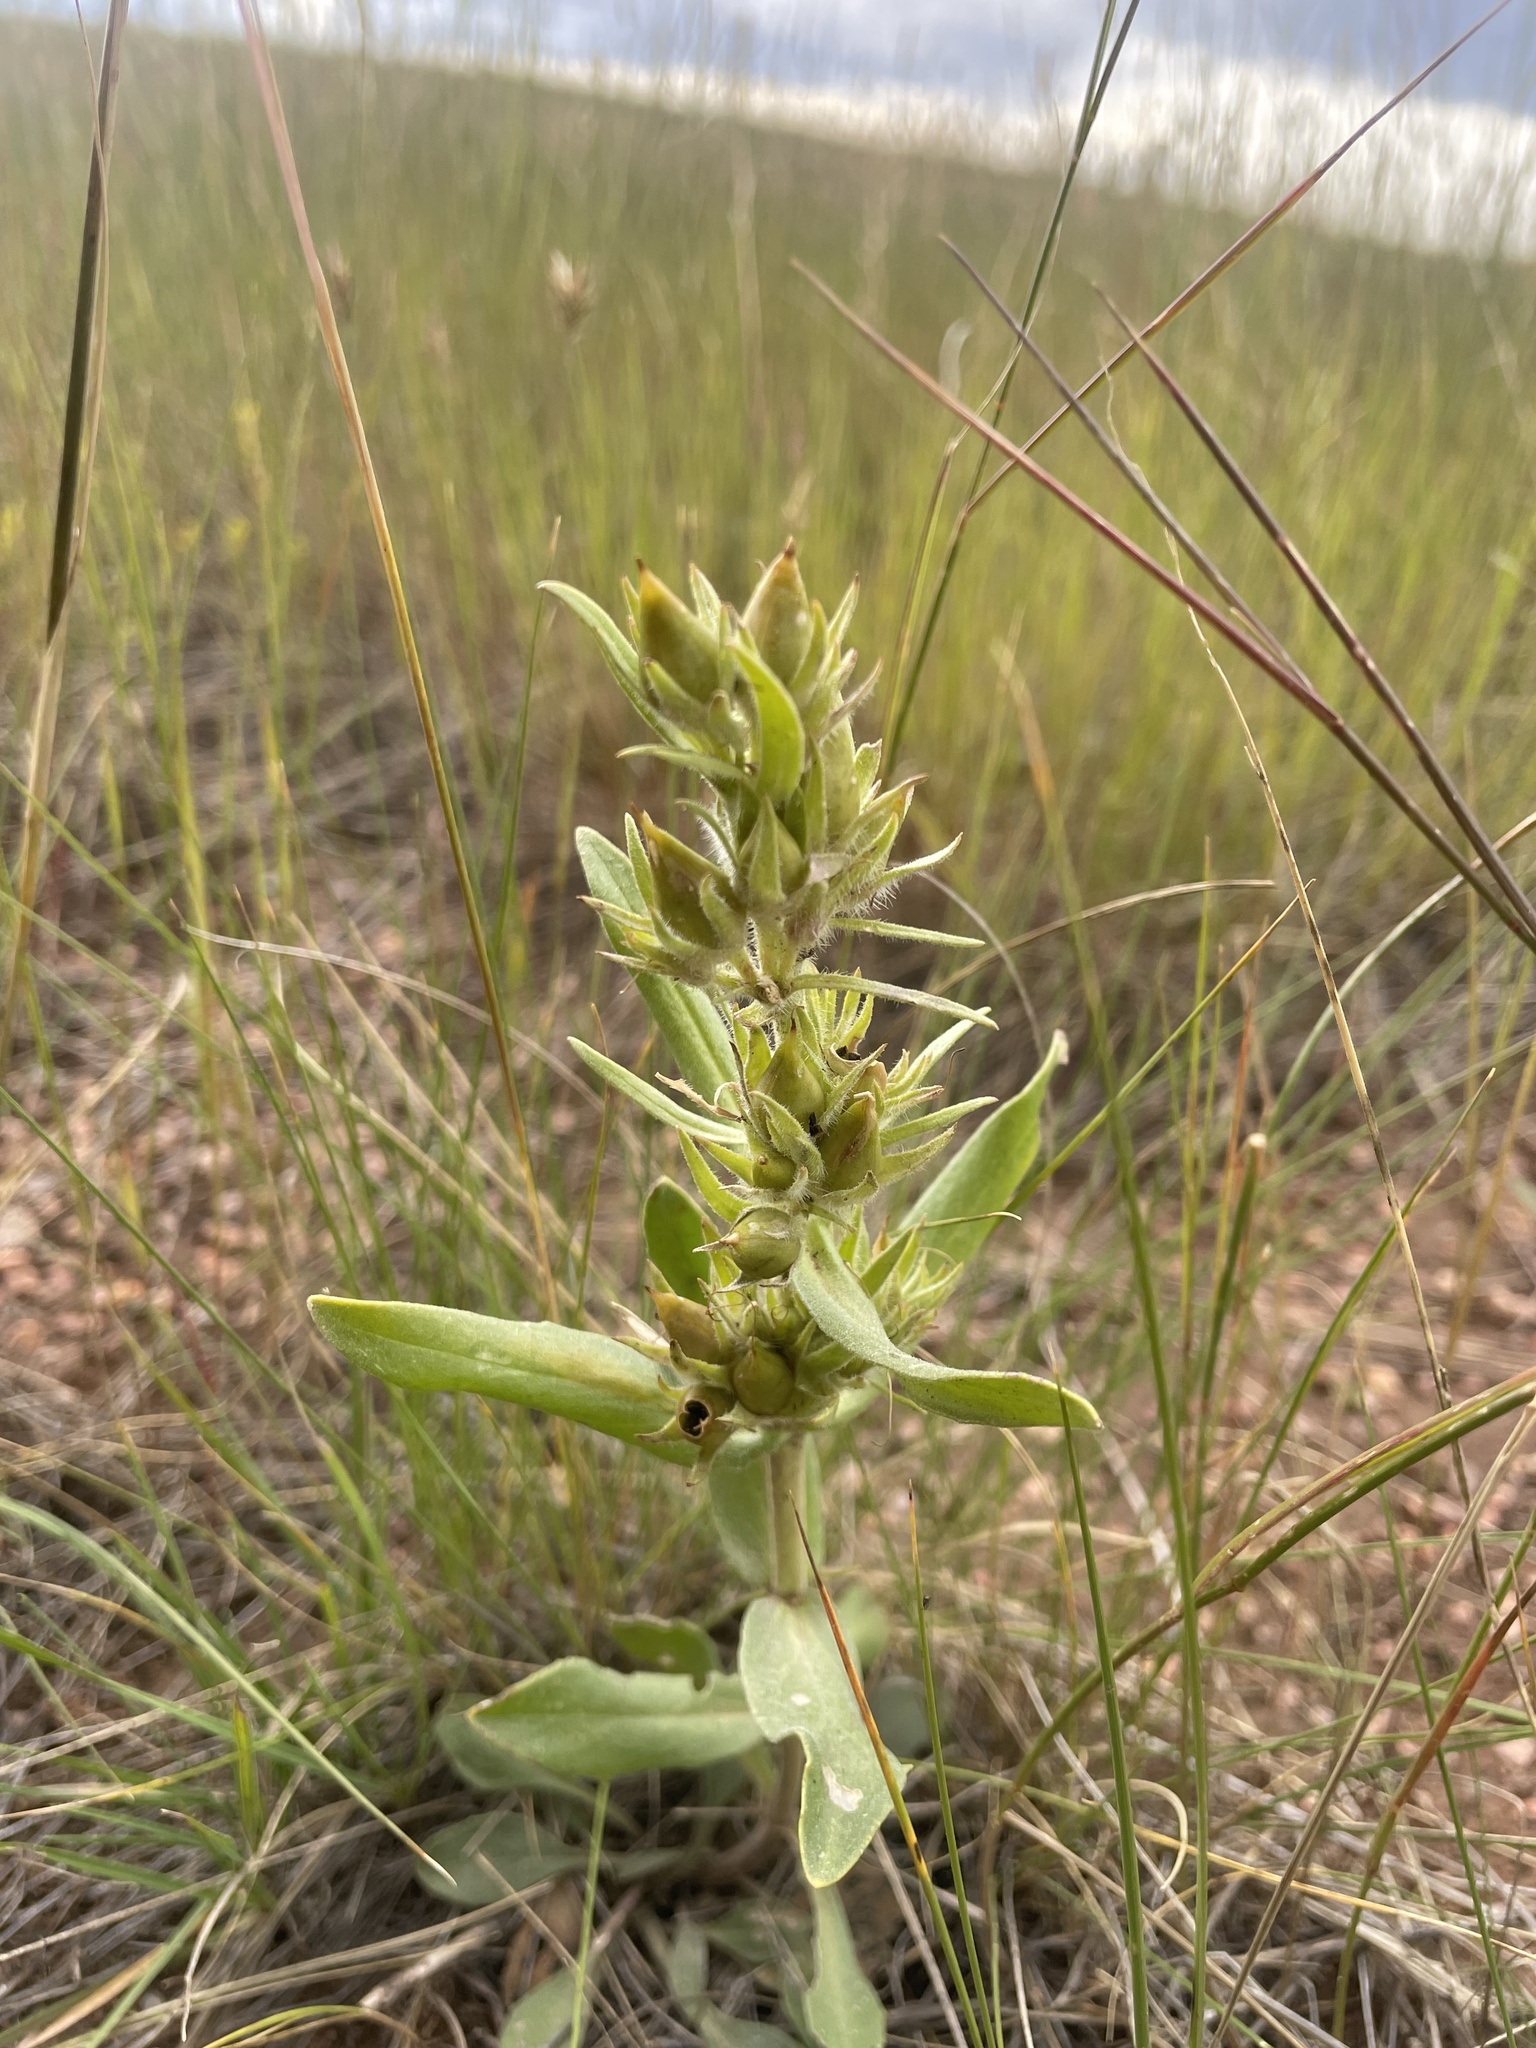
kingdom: Plantae
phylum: Tracheophyta
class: Magnoliopsida
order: Lamiales
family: Plantaginaceae
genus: Penstemon
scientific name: Penstemon eriantherus
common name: Crested beardtongue
